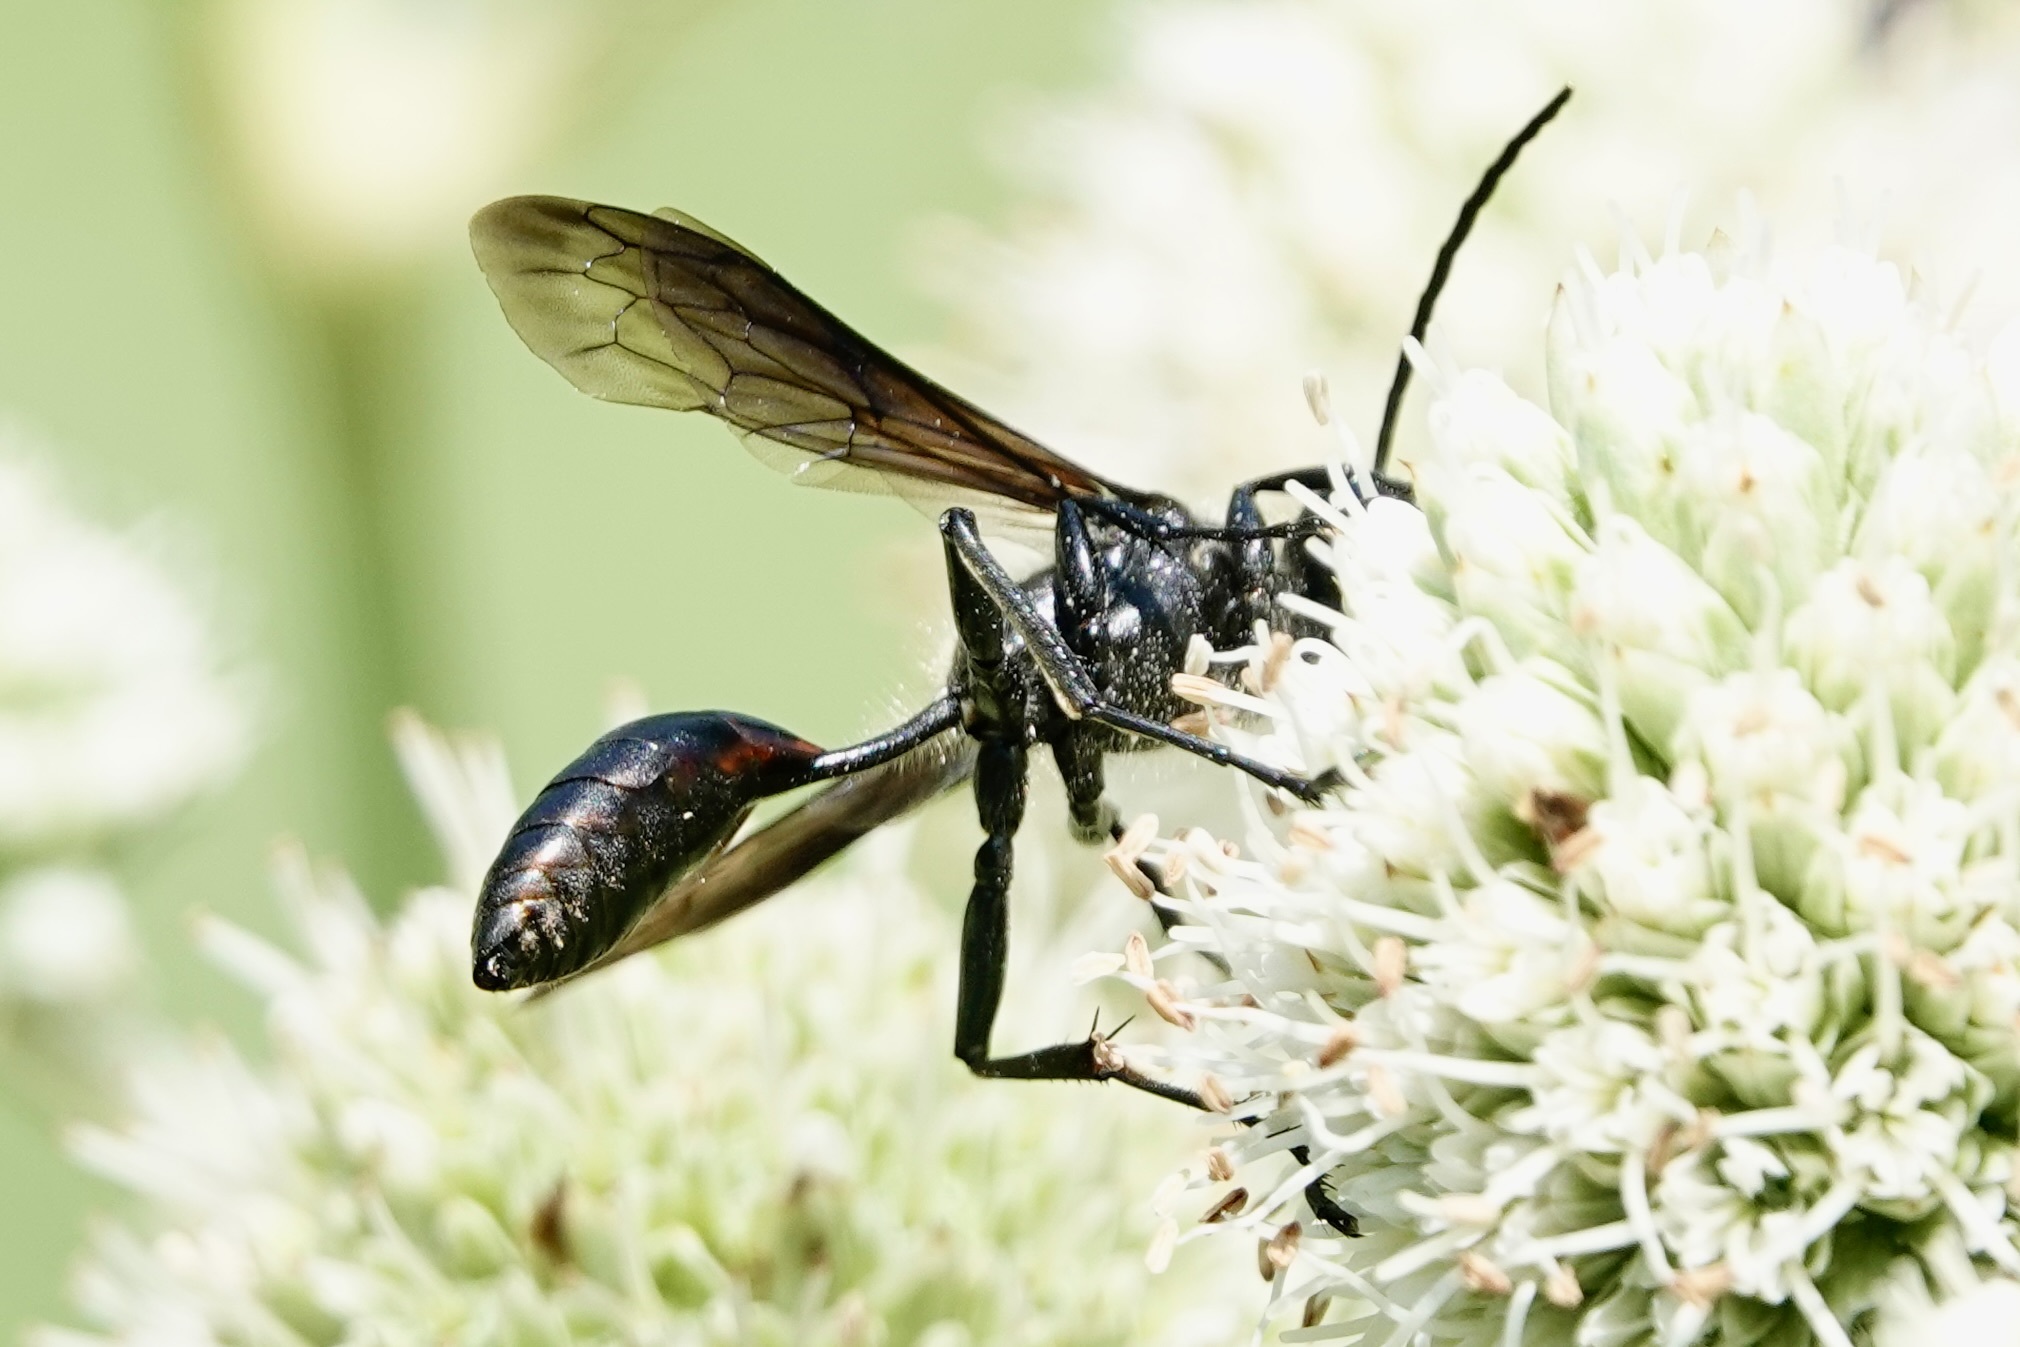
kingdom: Animalia
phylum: Arthropoda
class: Insecta
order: Hymenoptera
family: Sphecidae
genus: Isodontia
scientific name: Isodontia mexicana
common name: Mud dauber
